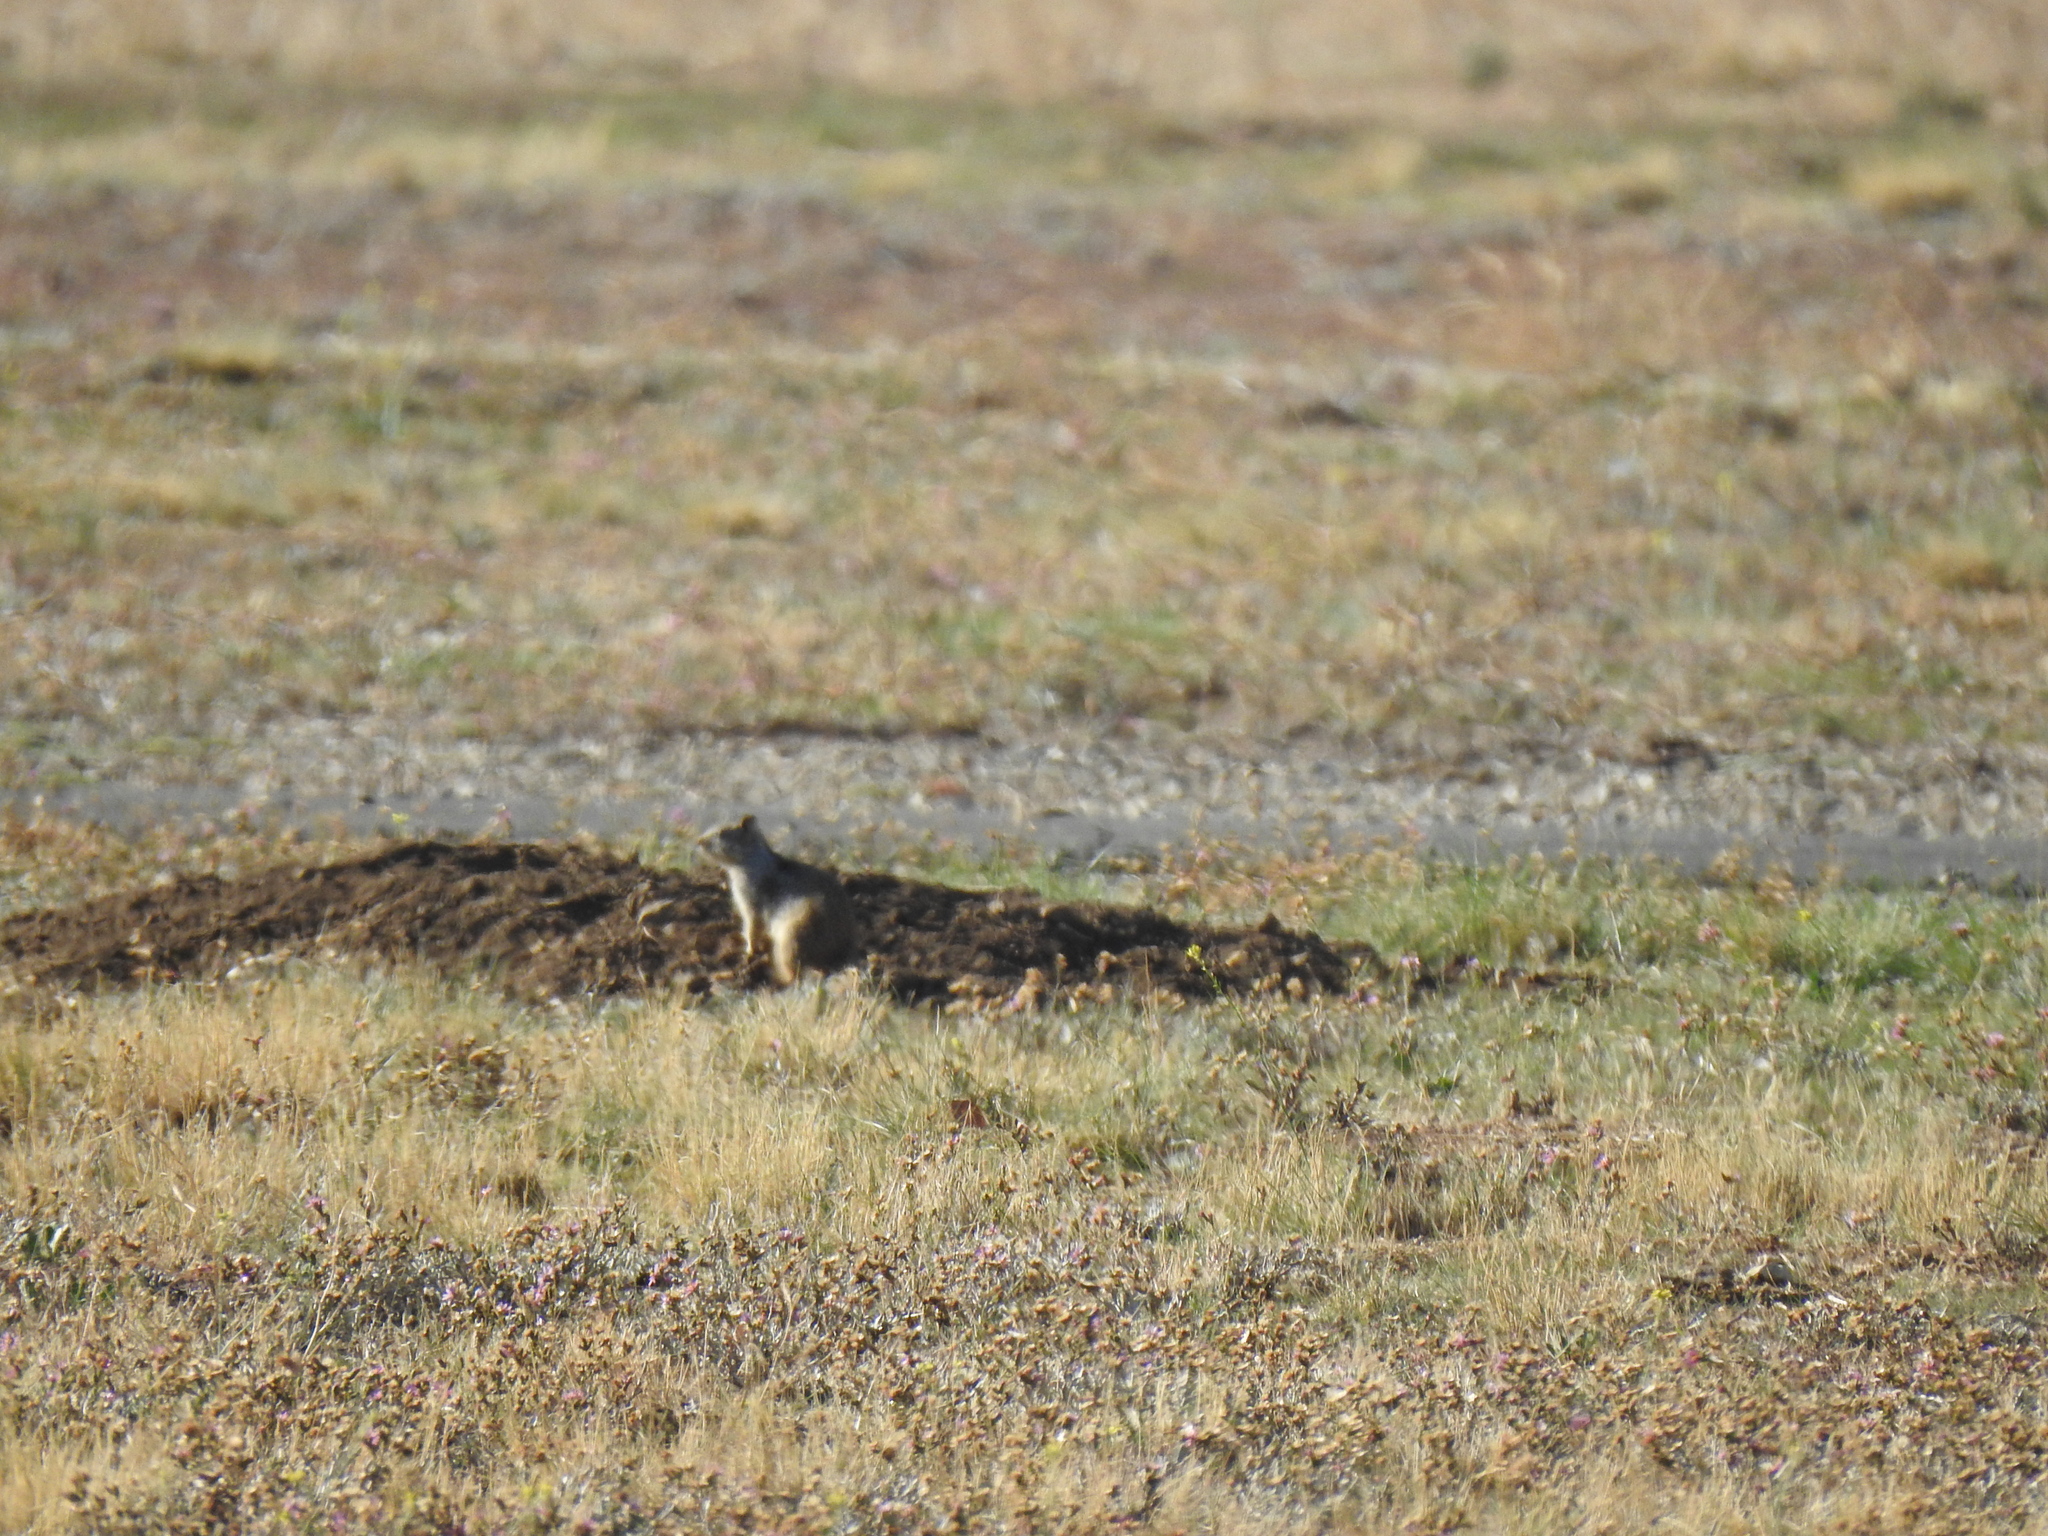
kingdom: Animalia
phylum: Chordata
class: Mammalia
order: Rodentia
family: Sciuridae
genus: Otospermophilus
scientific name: Otospermophilus beecheyi
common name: California ground squirrel
